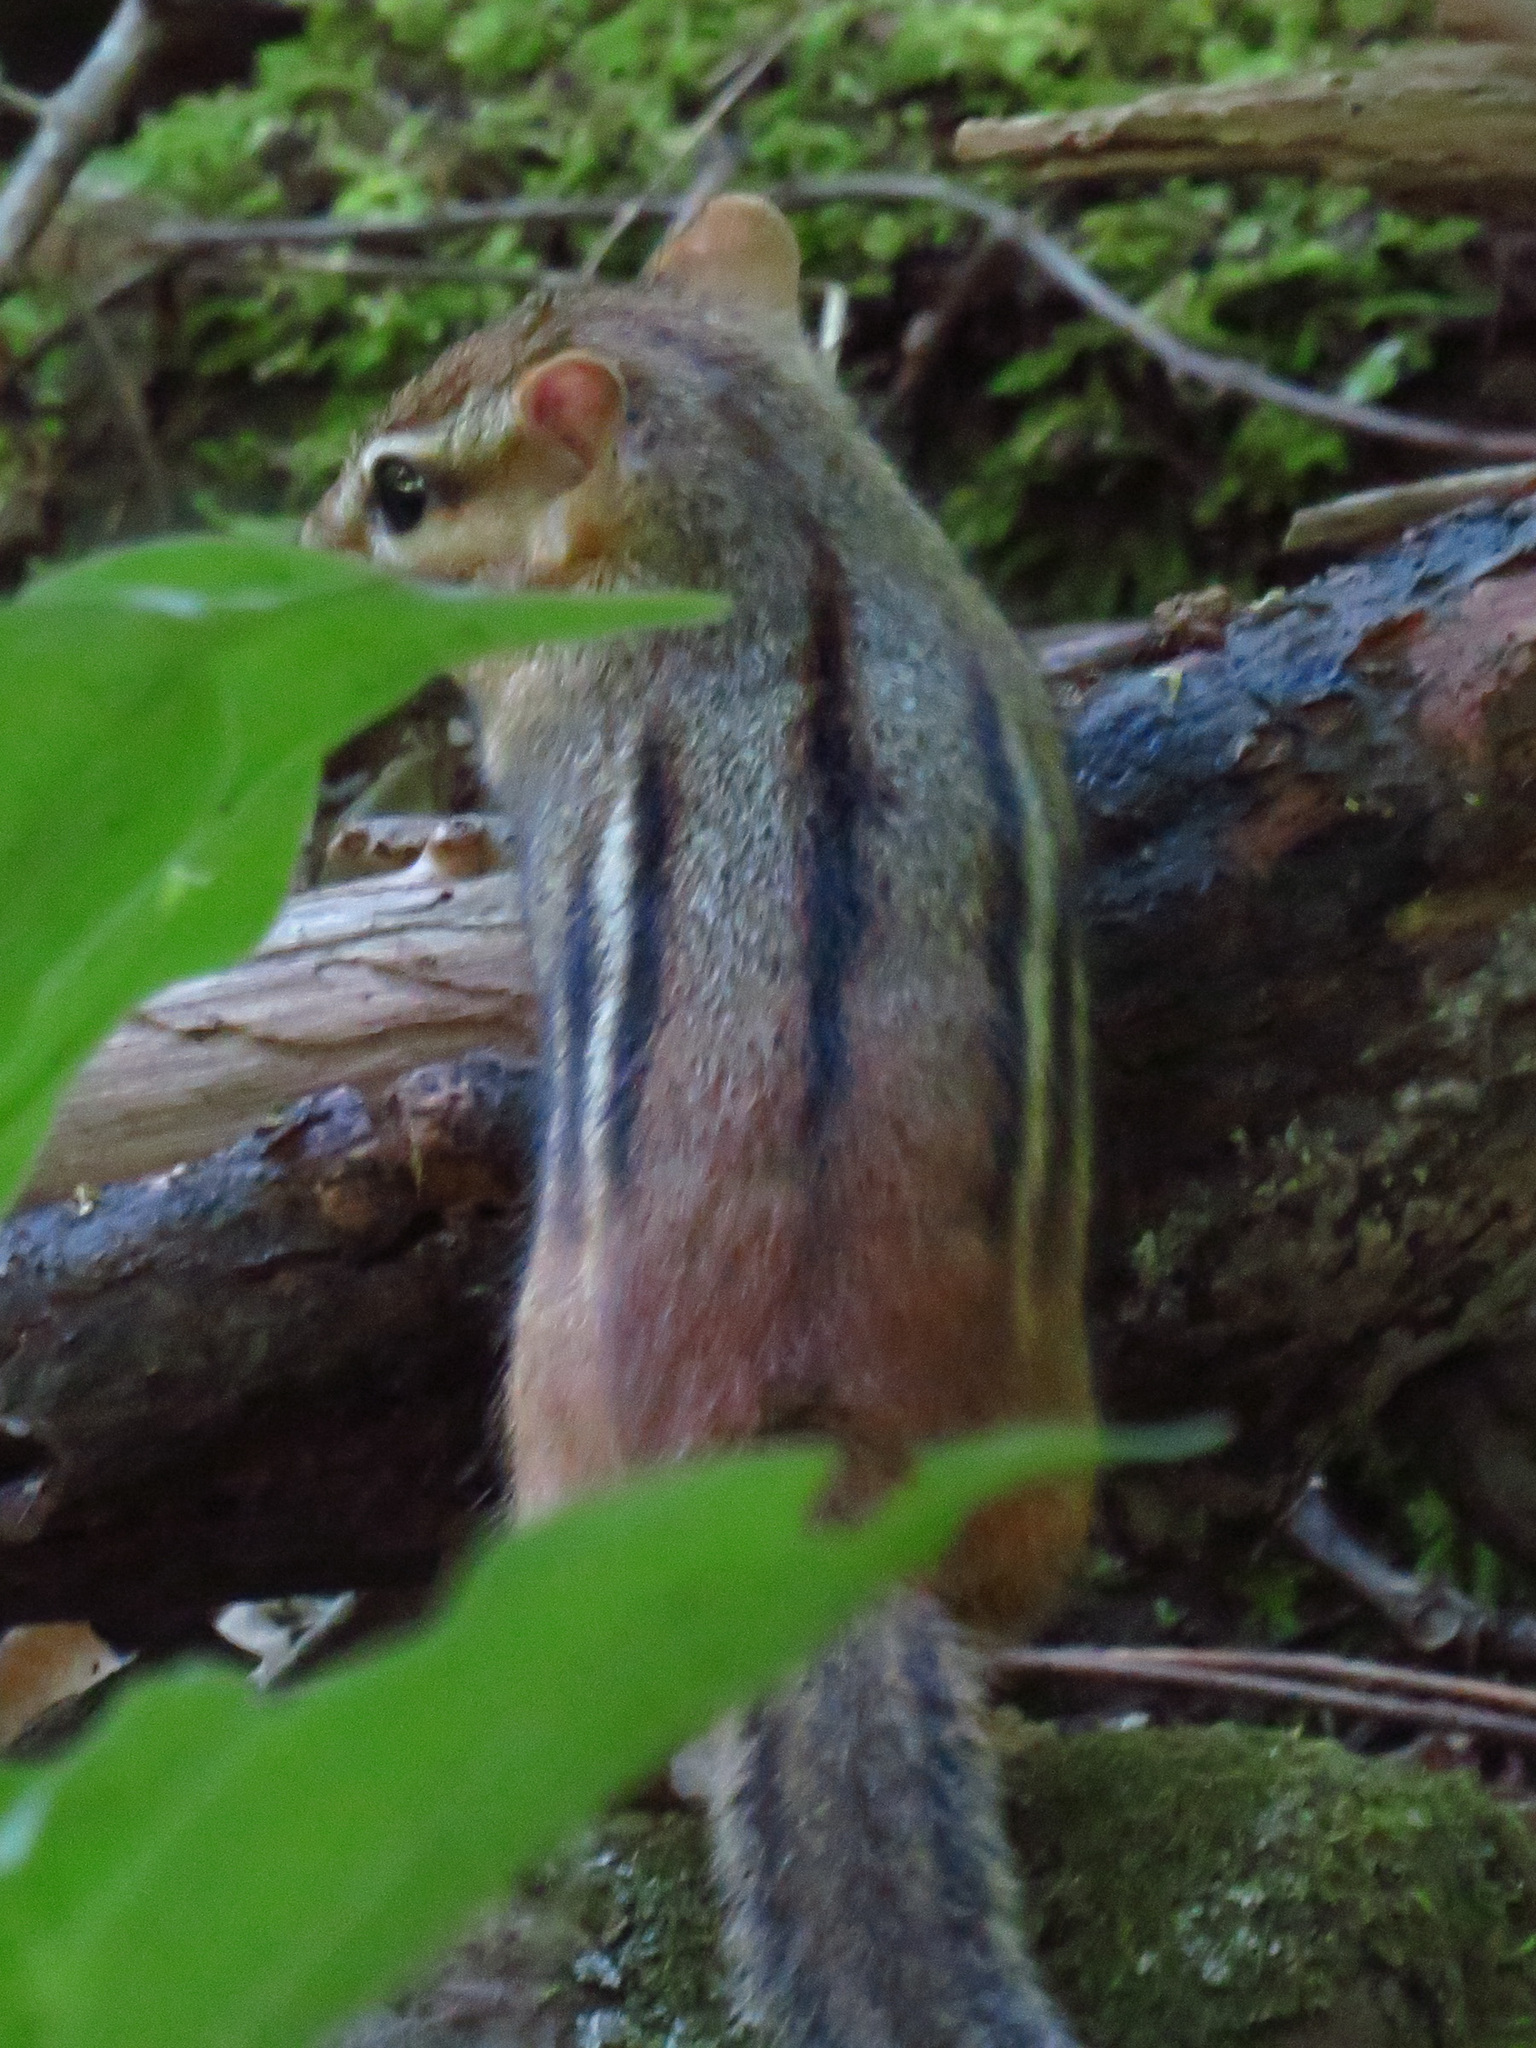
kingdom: Animalia
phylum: Chordata
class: Mammalia
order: Rodentia
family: Sciuridae
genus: Tamias
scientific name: Tamias striatus
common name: Eastern chipmunk
